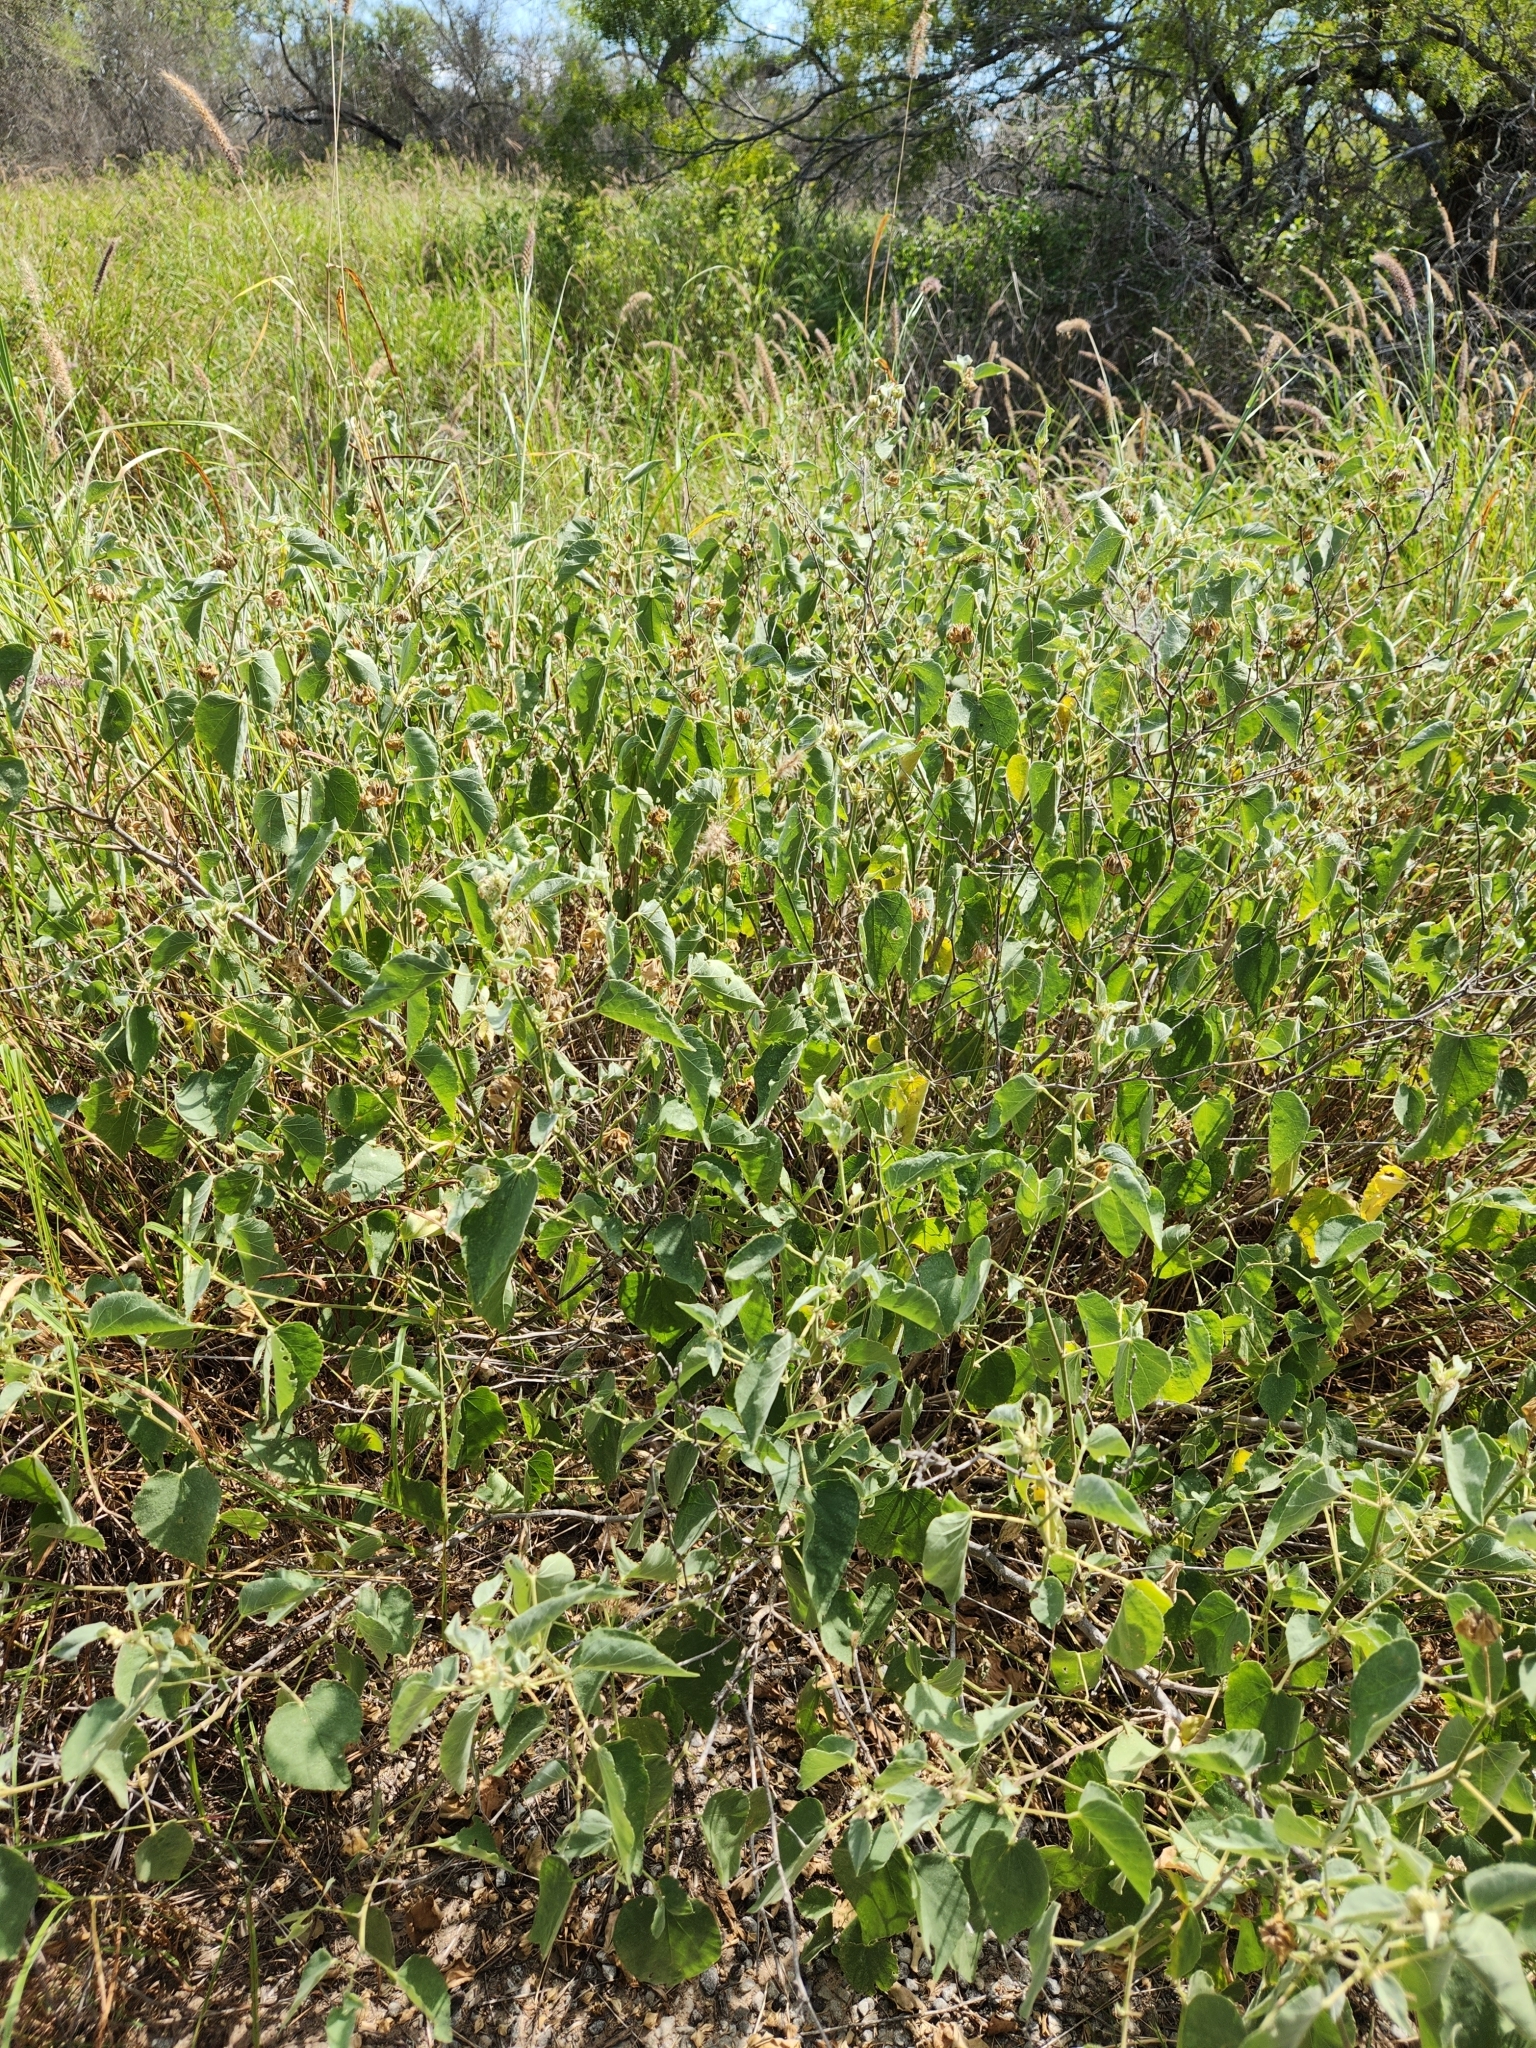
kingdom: Plantae
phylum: Tracheophyta
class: Magnoliopsida
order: Malvales
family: Malvaceae
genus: Abutilon
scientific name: Abutilon berlandieri
